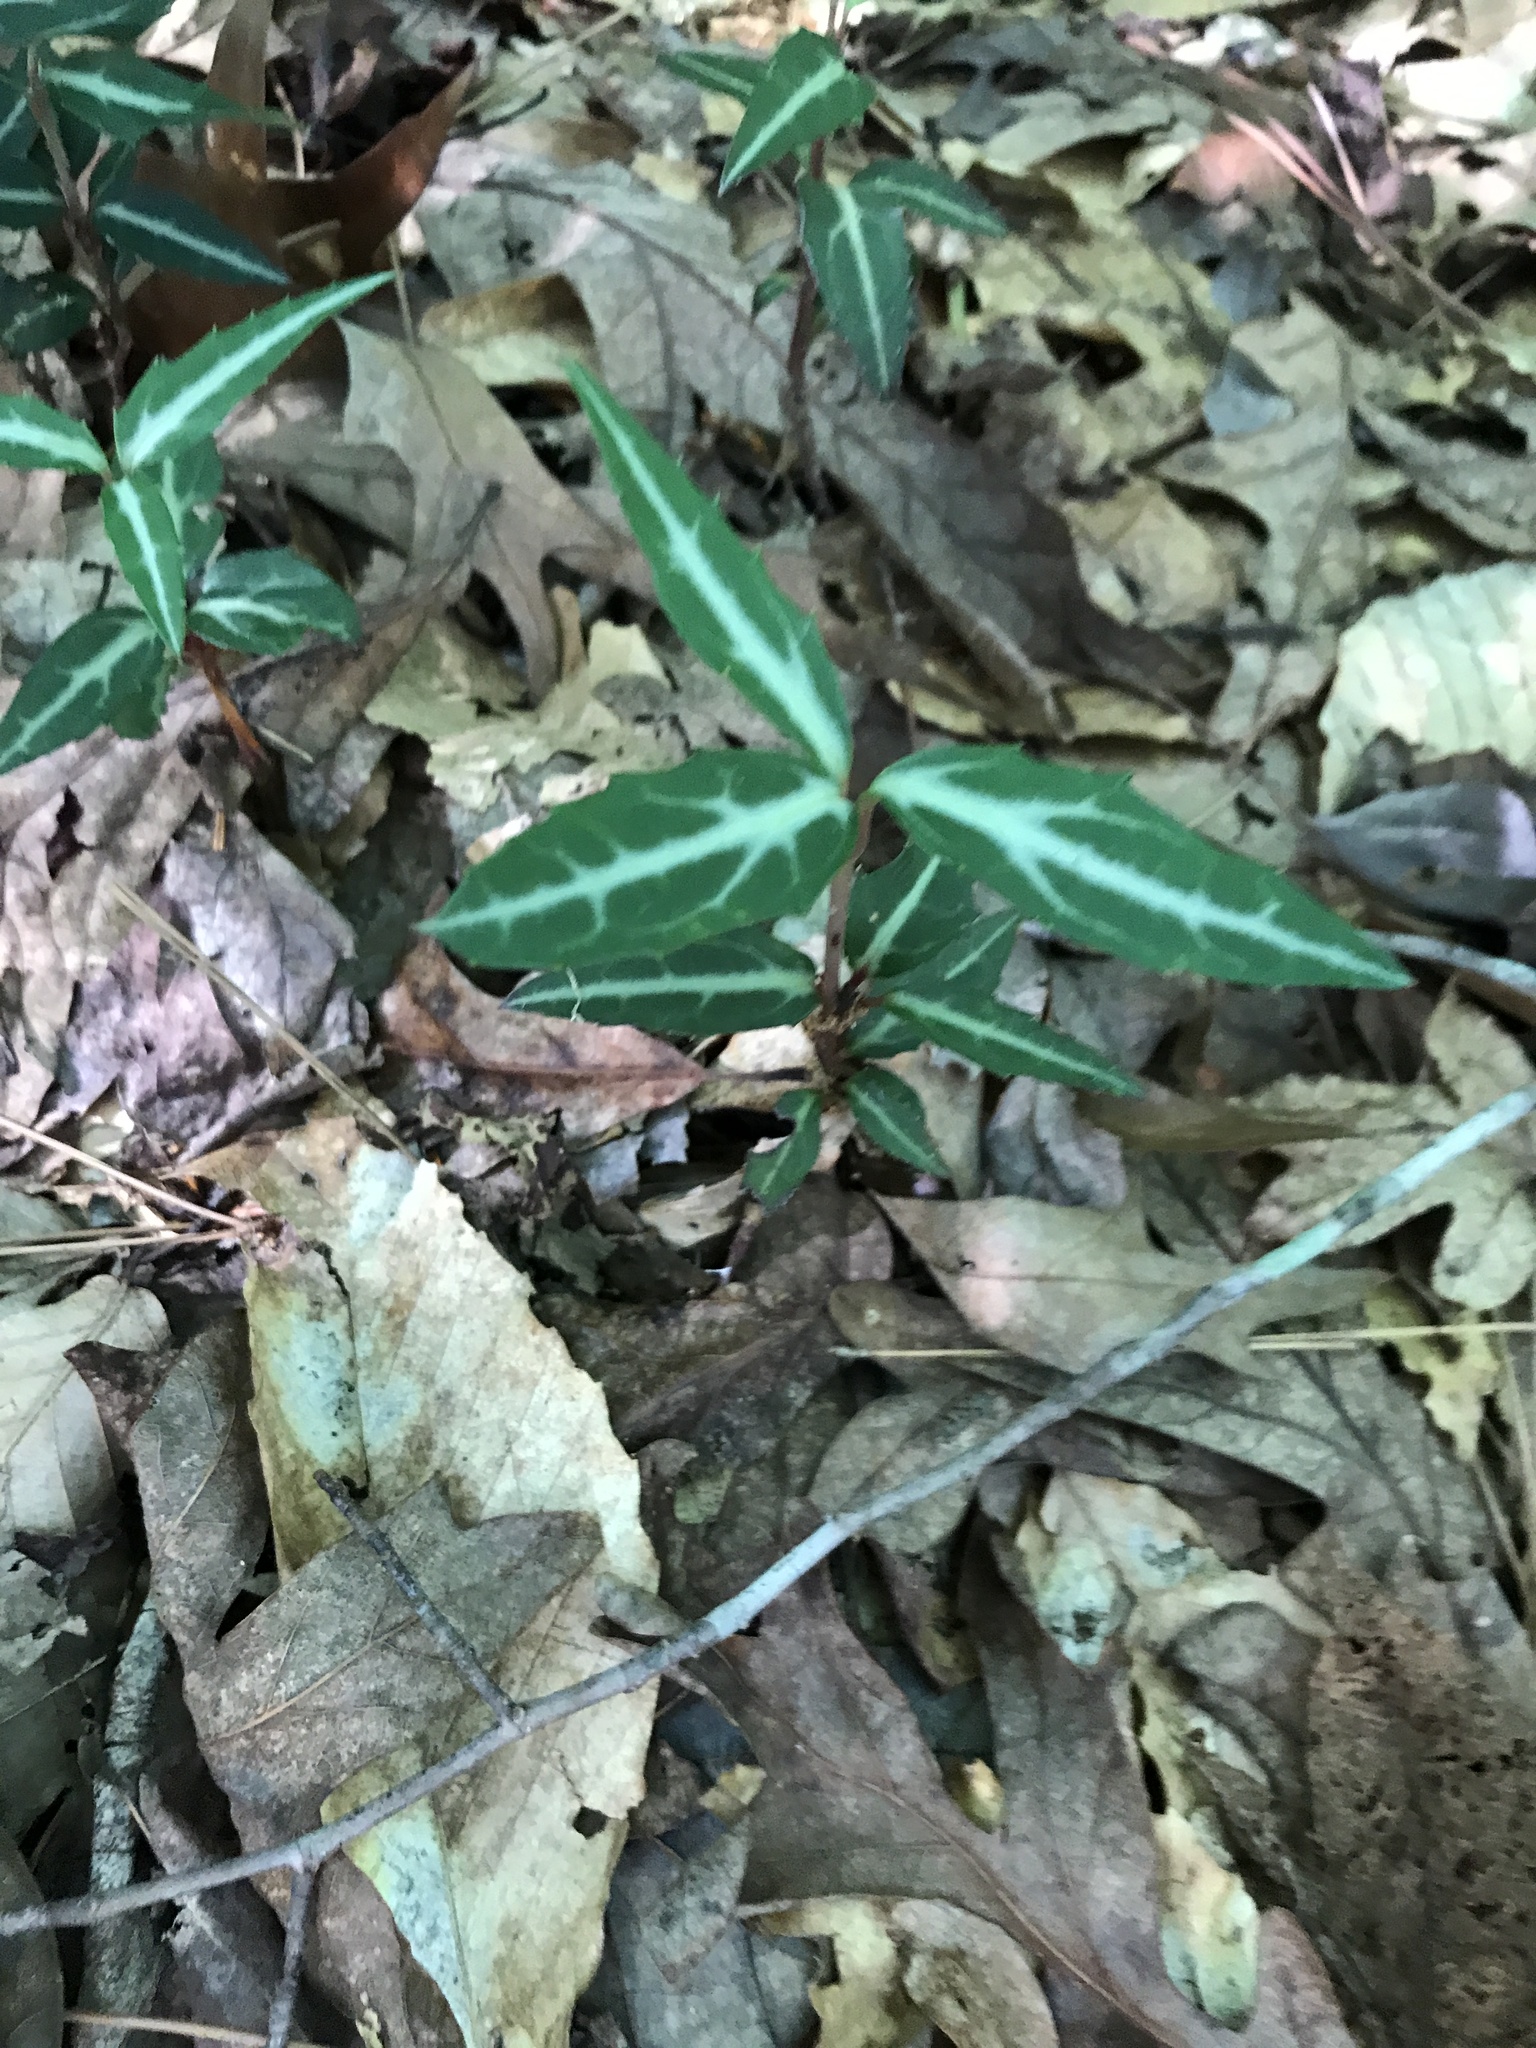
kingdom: Plantae
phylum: Tracheophyta
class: Magnoliopsida
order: Ericales
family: Ericaceae
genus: Chimaphila
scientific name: Chimaphila maculata
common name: Spotted pipsissewa
